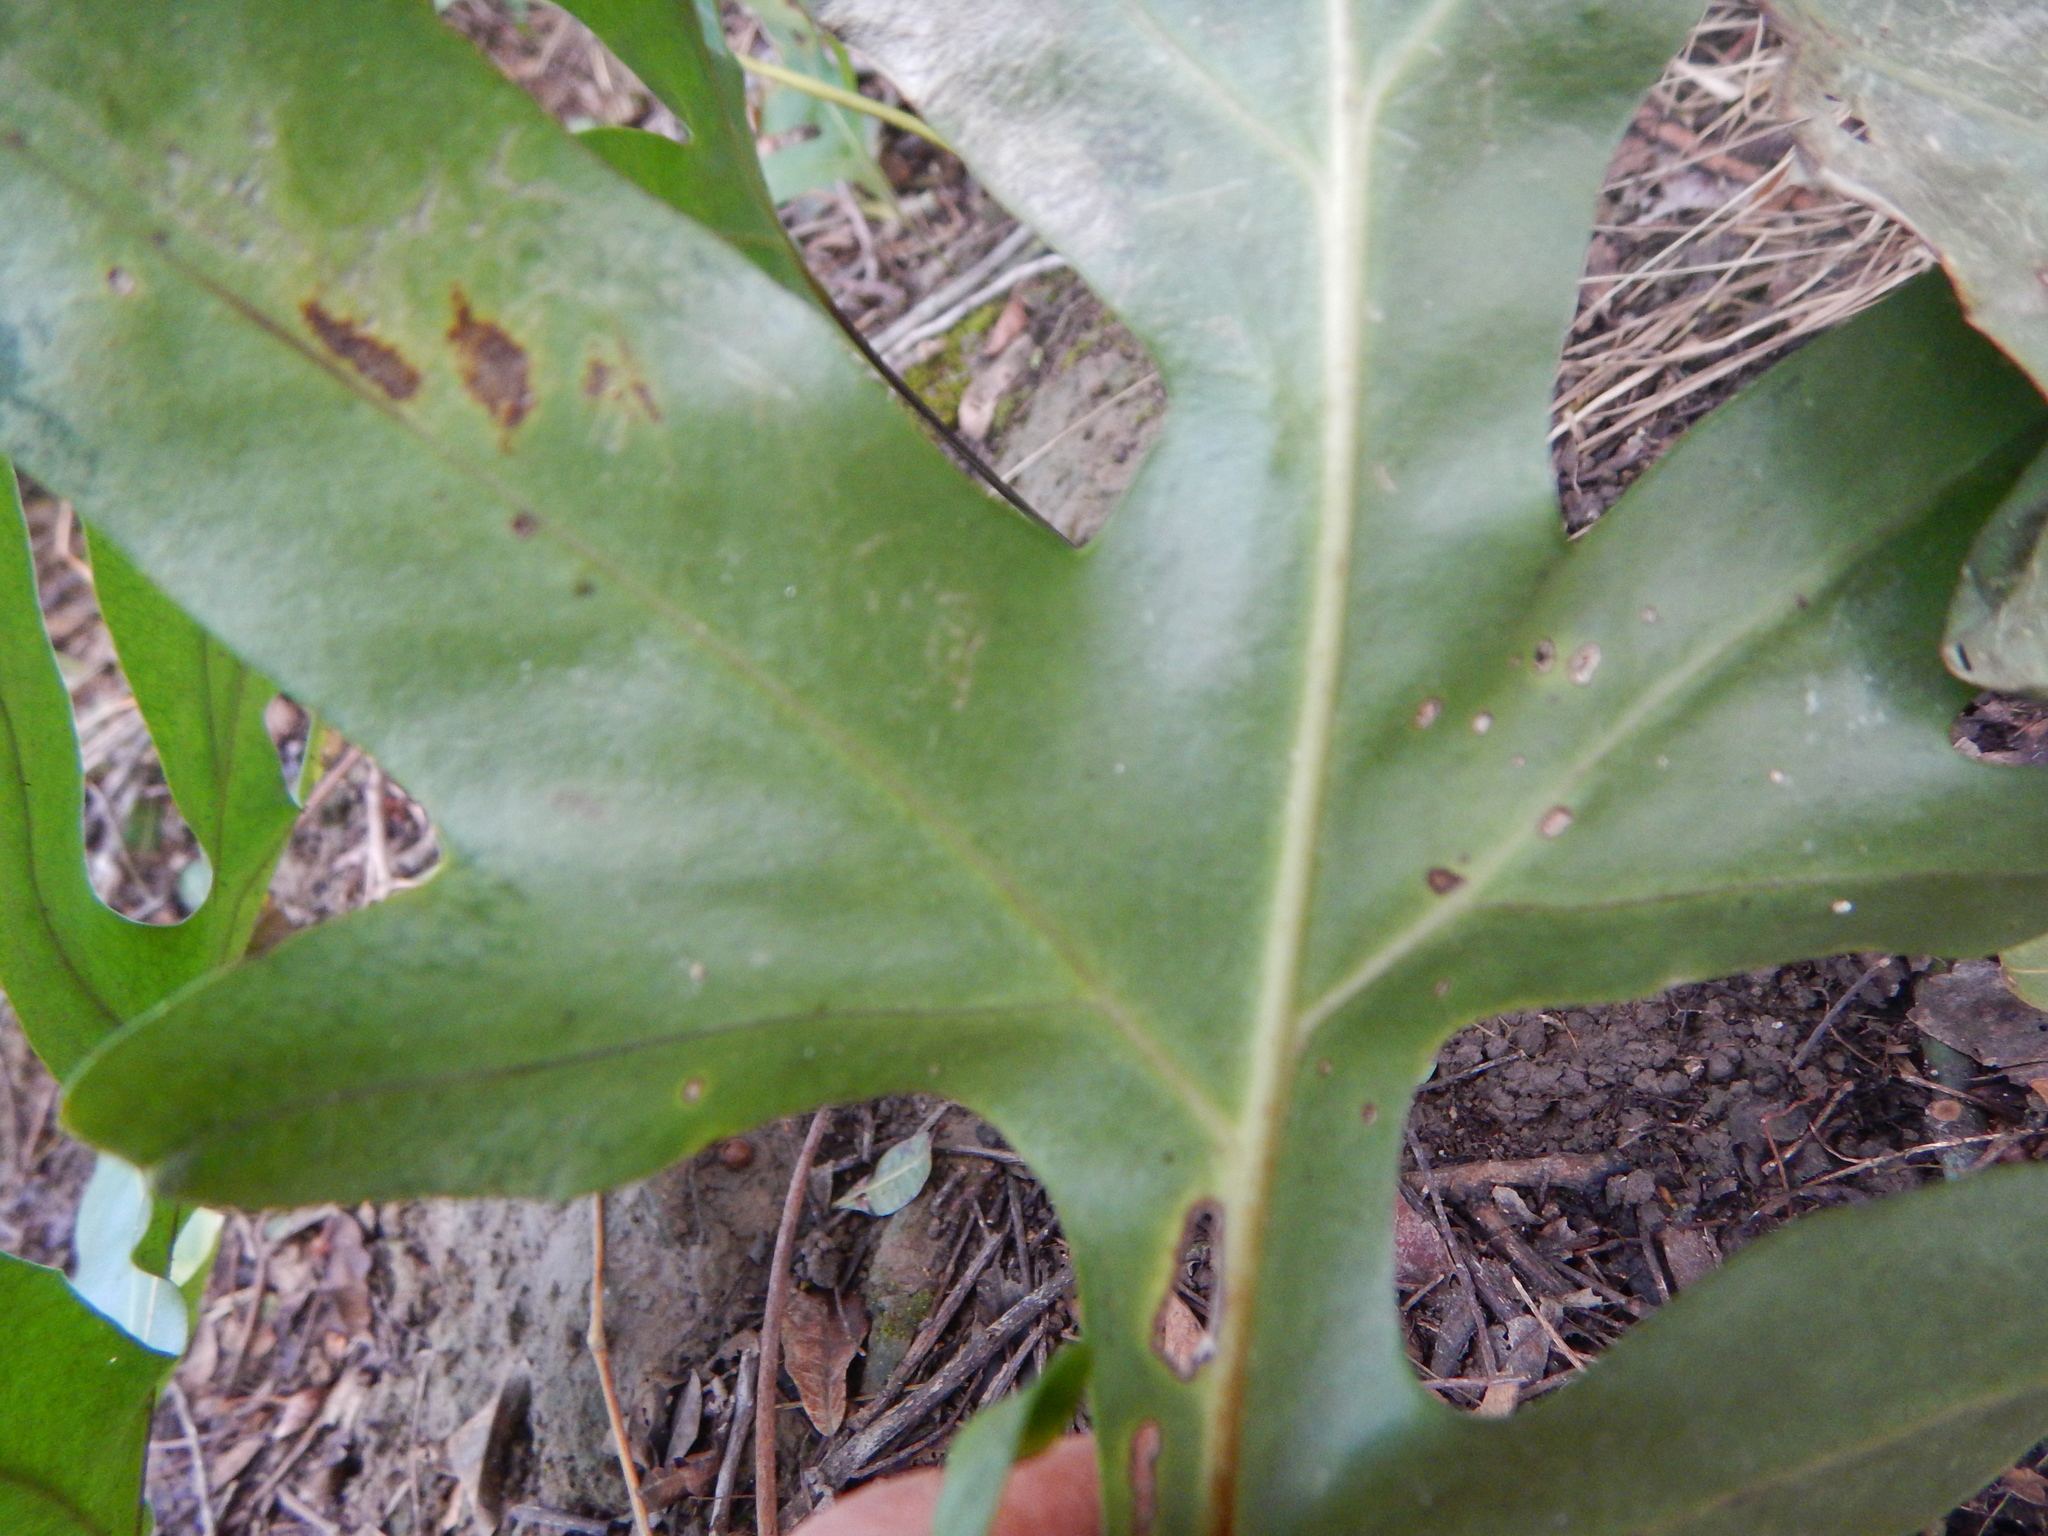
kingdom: Plantae
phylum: Tracheophyta
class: Polypodiopsida
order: Polypodiales
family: Polypodiaceae
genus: Microsorum
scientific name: Microsorum grossum
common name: Musk fern
